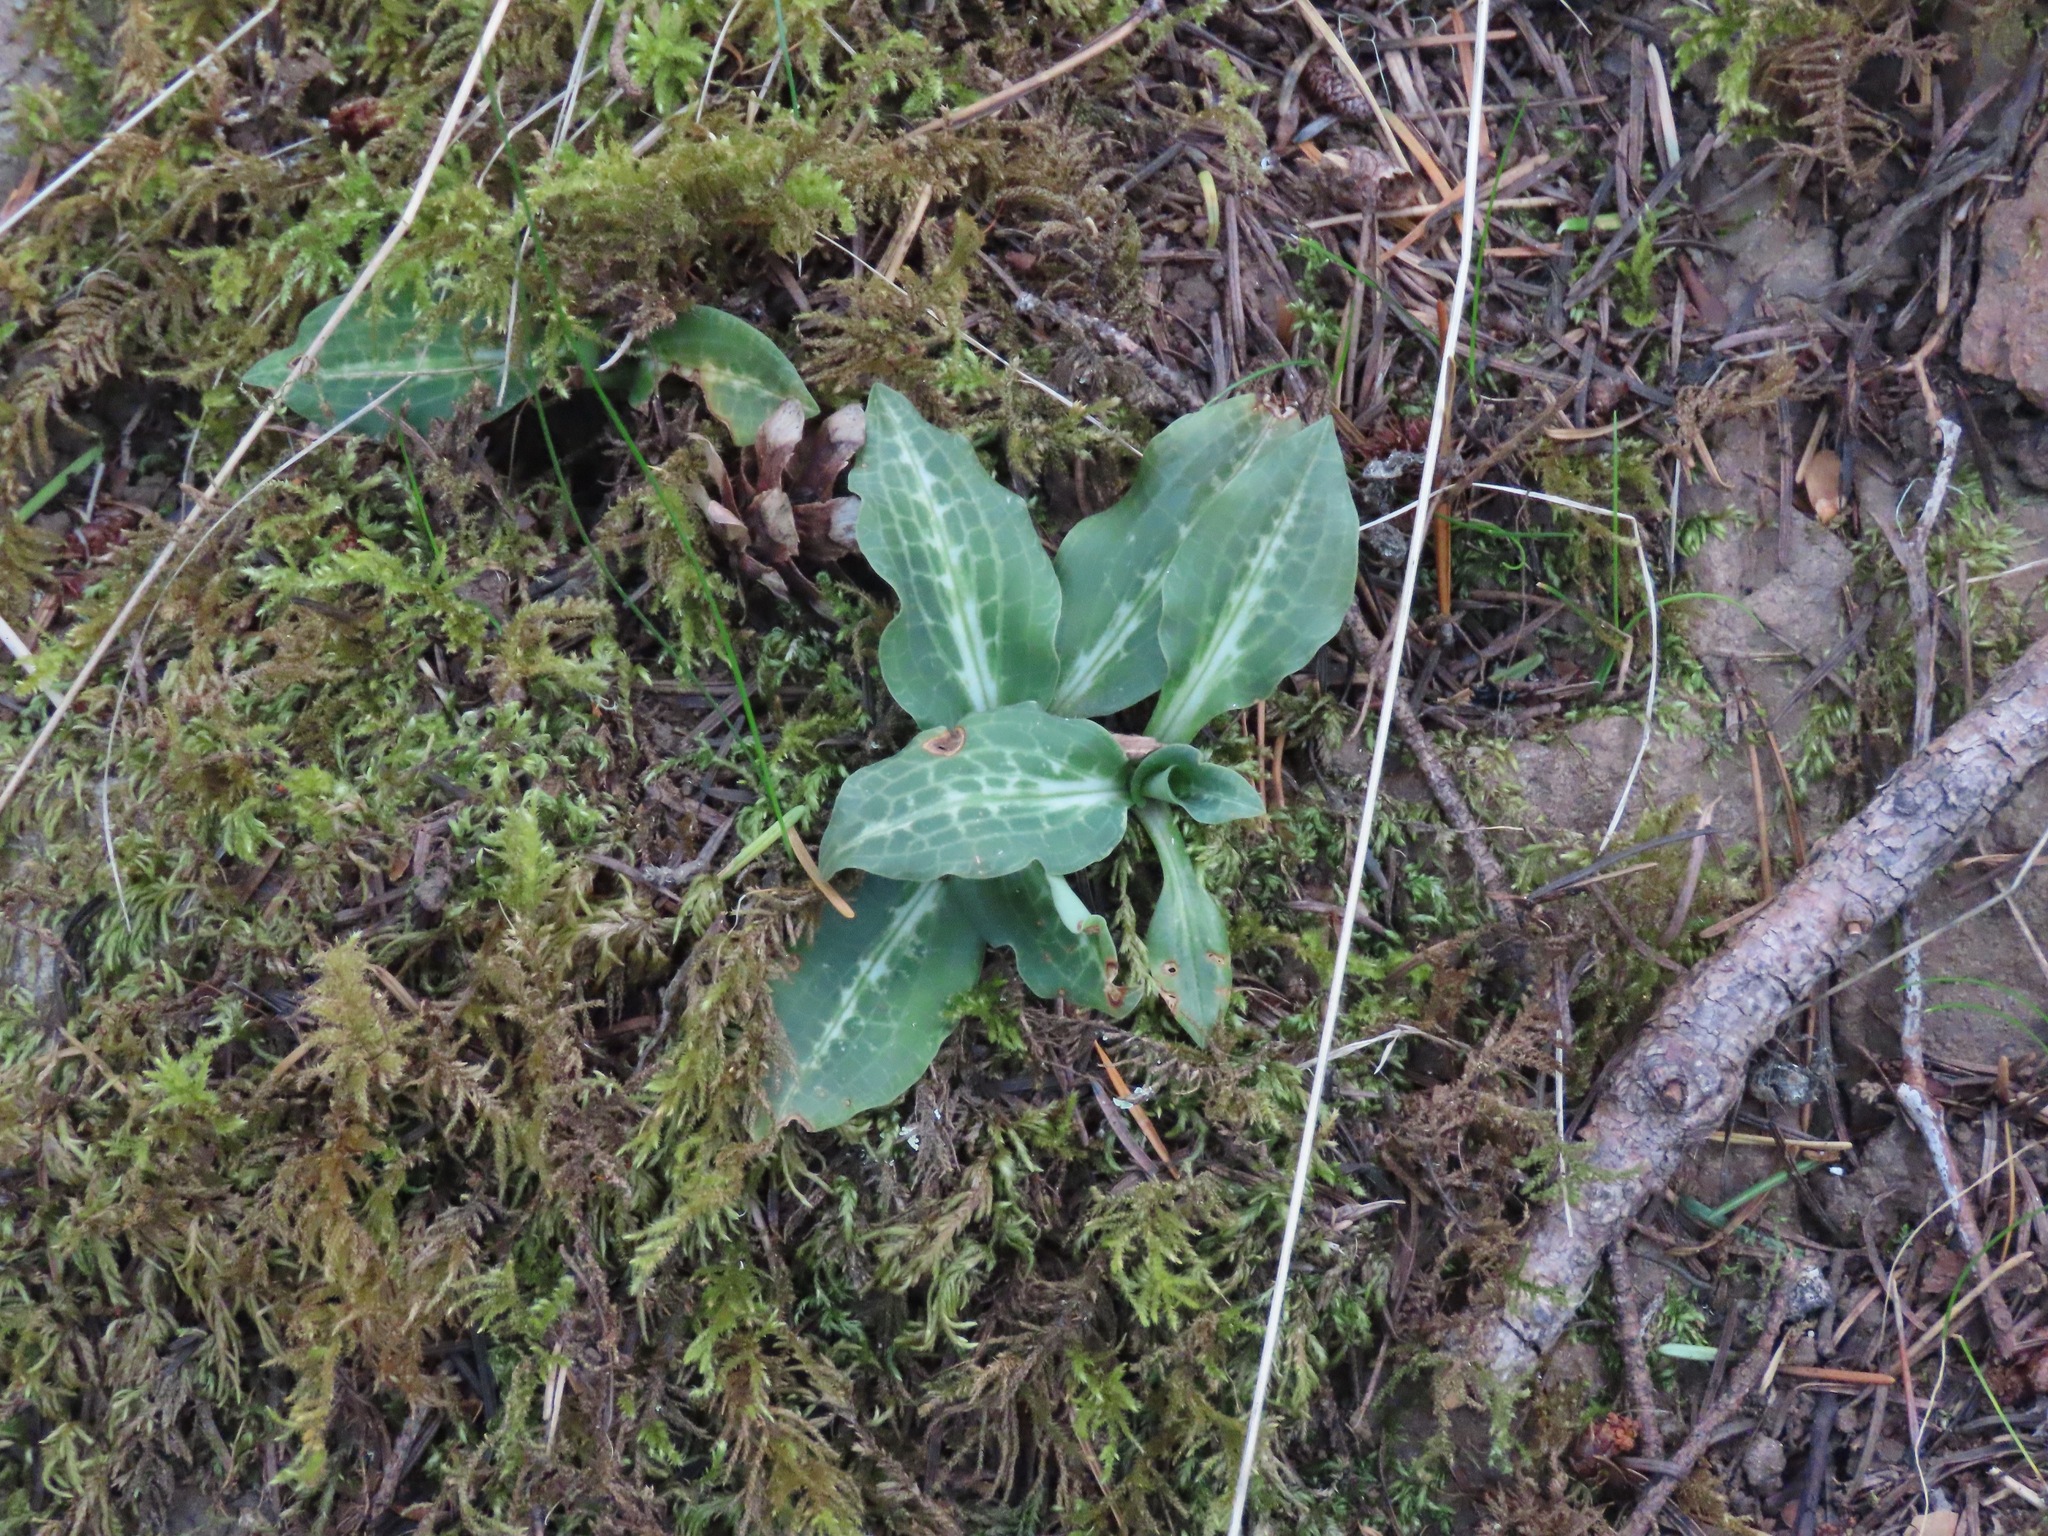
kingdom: Plantae
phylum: Tracheophyta
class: Liliopsida
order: Asparagales
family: Orchidaceae
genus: Goodyera
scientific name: Goodyera oblongifolia
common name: Giant rattlesnake-plantain
